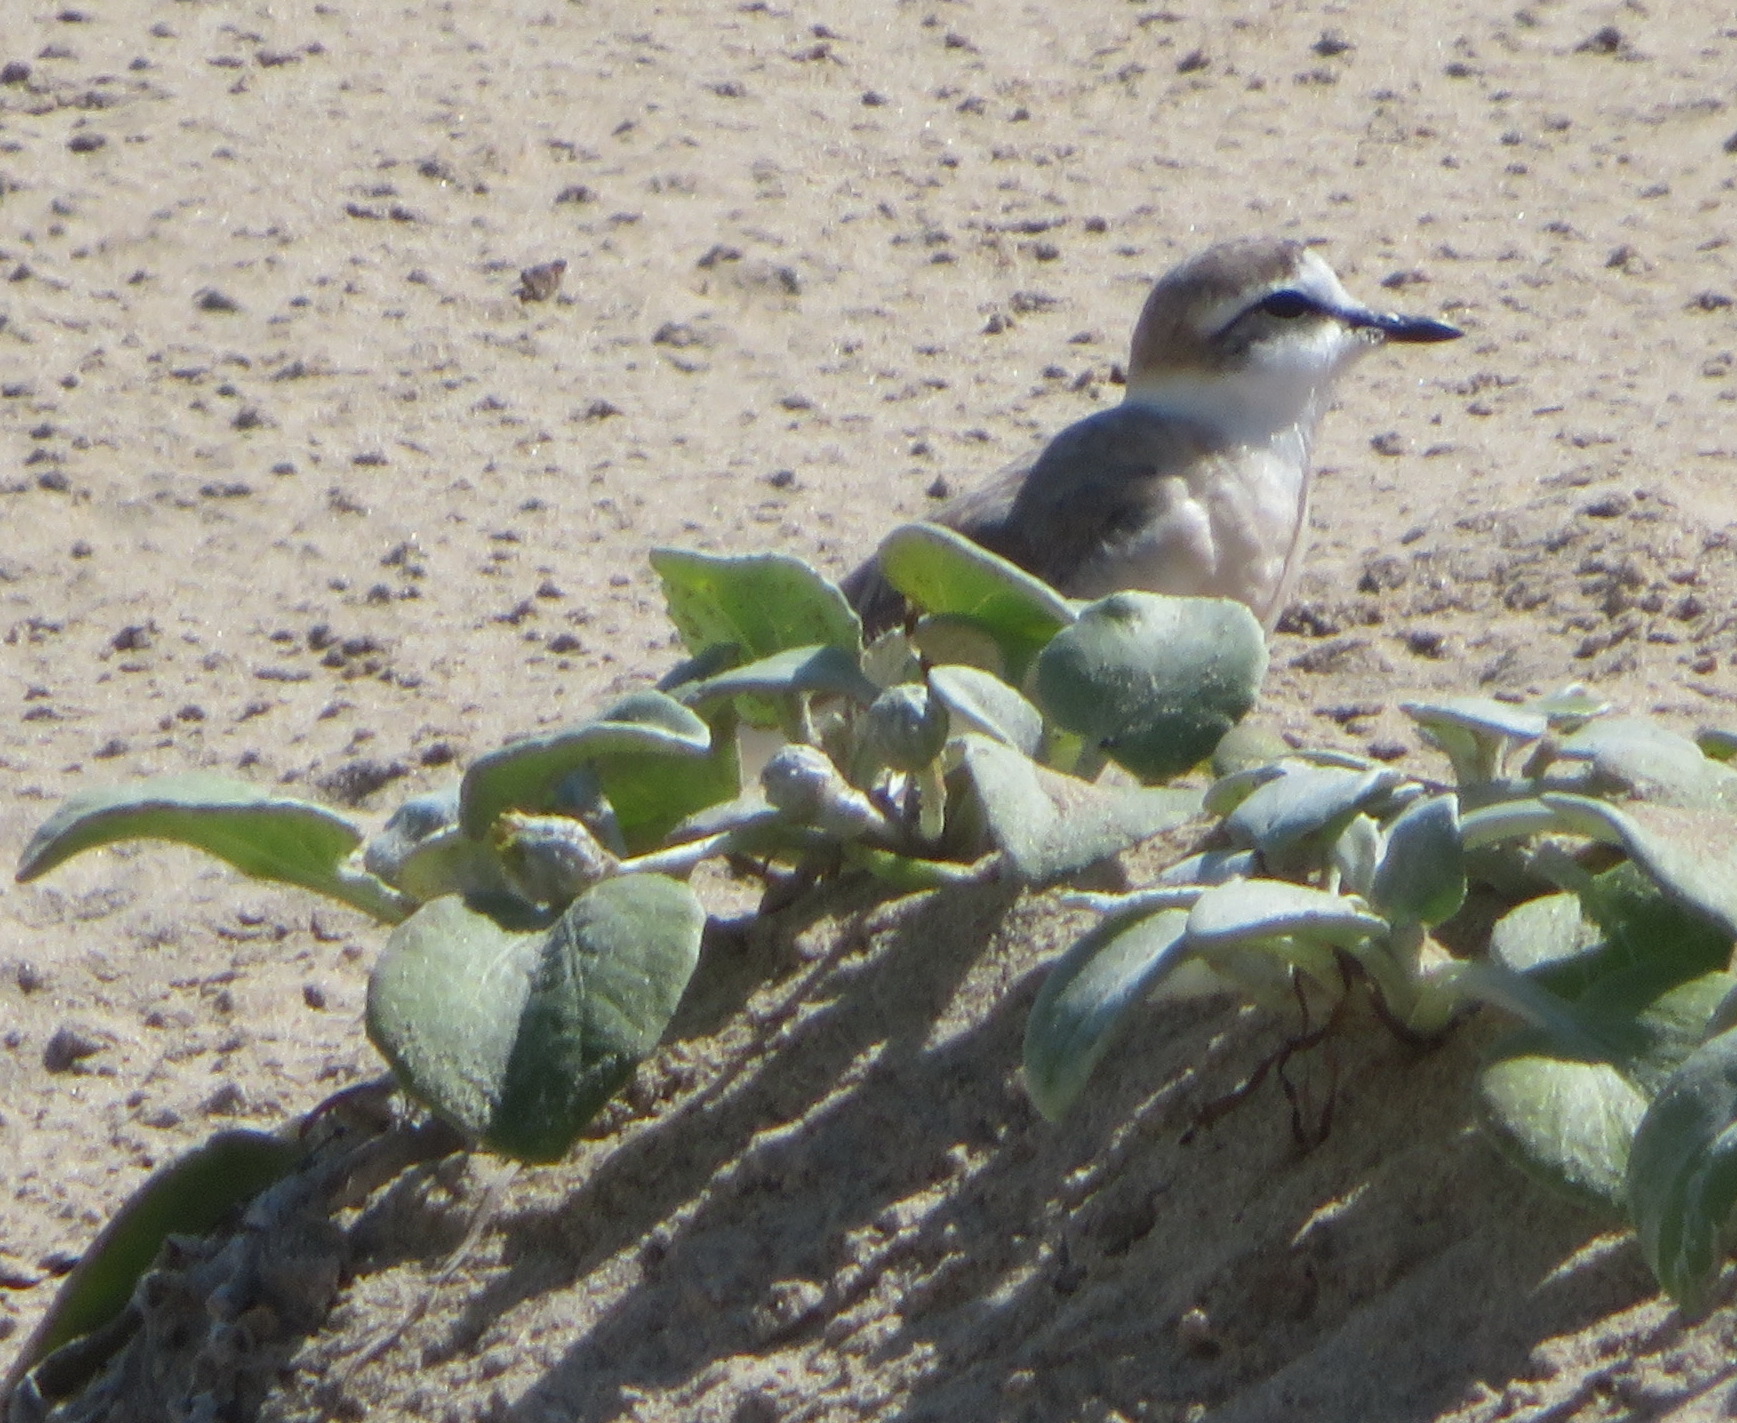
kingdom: Animalia
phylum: Chordata
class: Aves
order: Charadriiformes
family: Charadriidae
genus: Anarhynchus
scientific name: Anarhynchus
